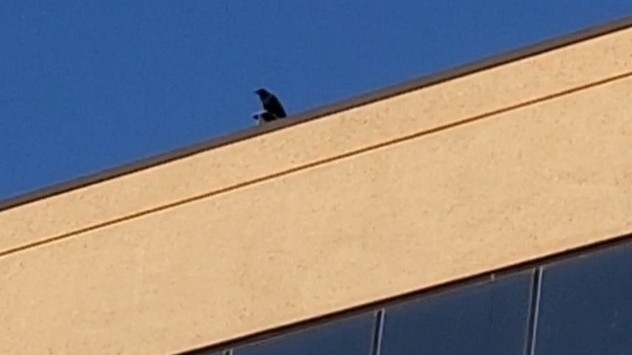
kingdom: Animalia
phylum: Chordata
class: Aves
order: Passeriformes
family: Corvidae
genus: Corvus
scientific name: Corvus brachyrhynchos
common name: American crow
